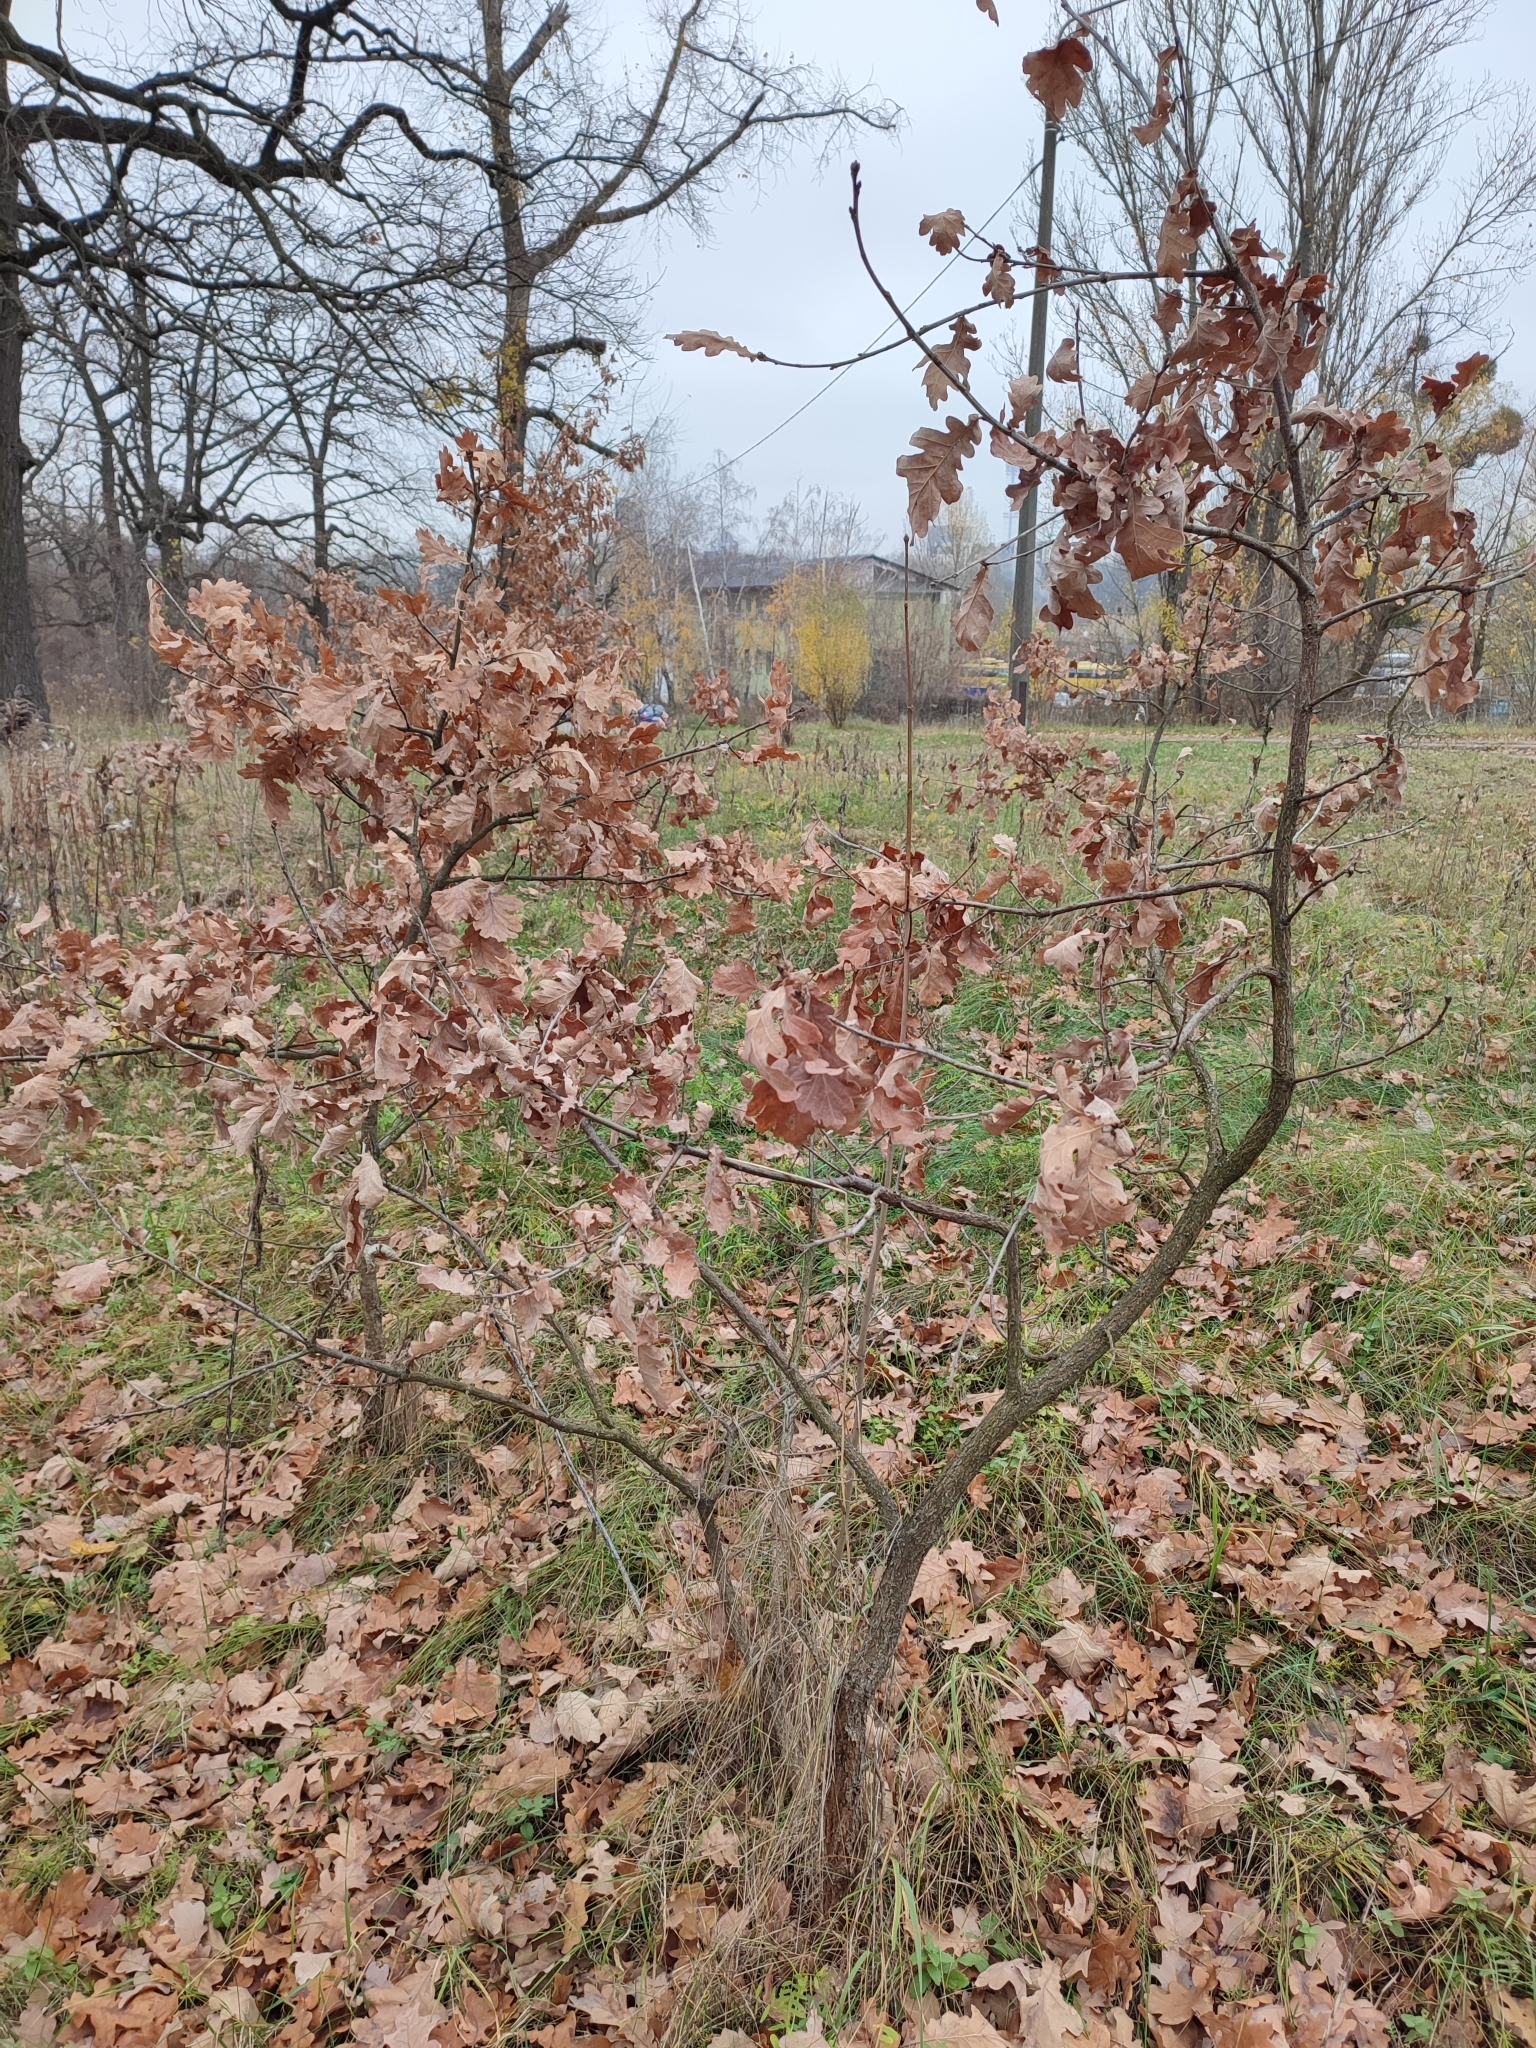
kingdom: Plantae
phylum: Tracheophyta
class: Magnoliopsida
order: Fagales
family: Fagaceae
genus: Quercus
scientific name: Quercus robur
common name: Pedunculate oak
